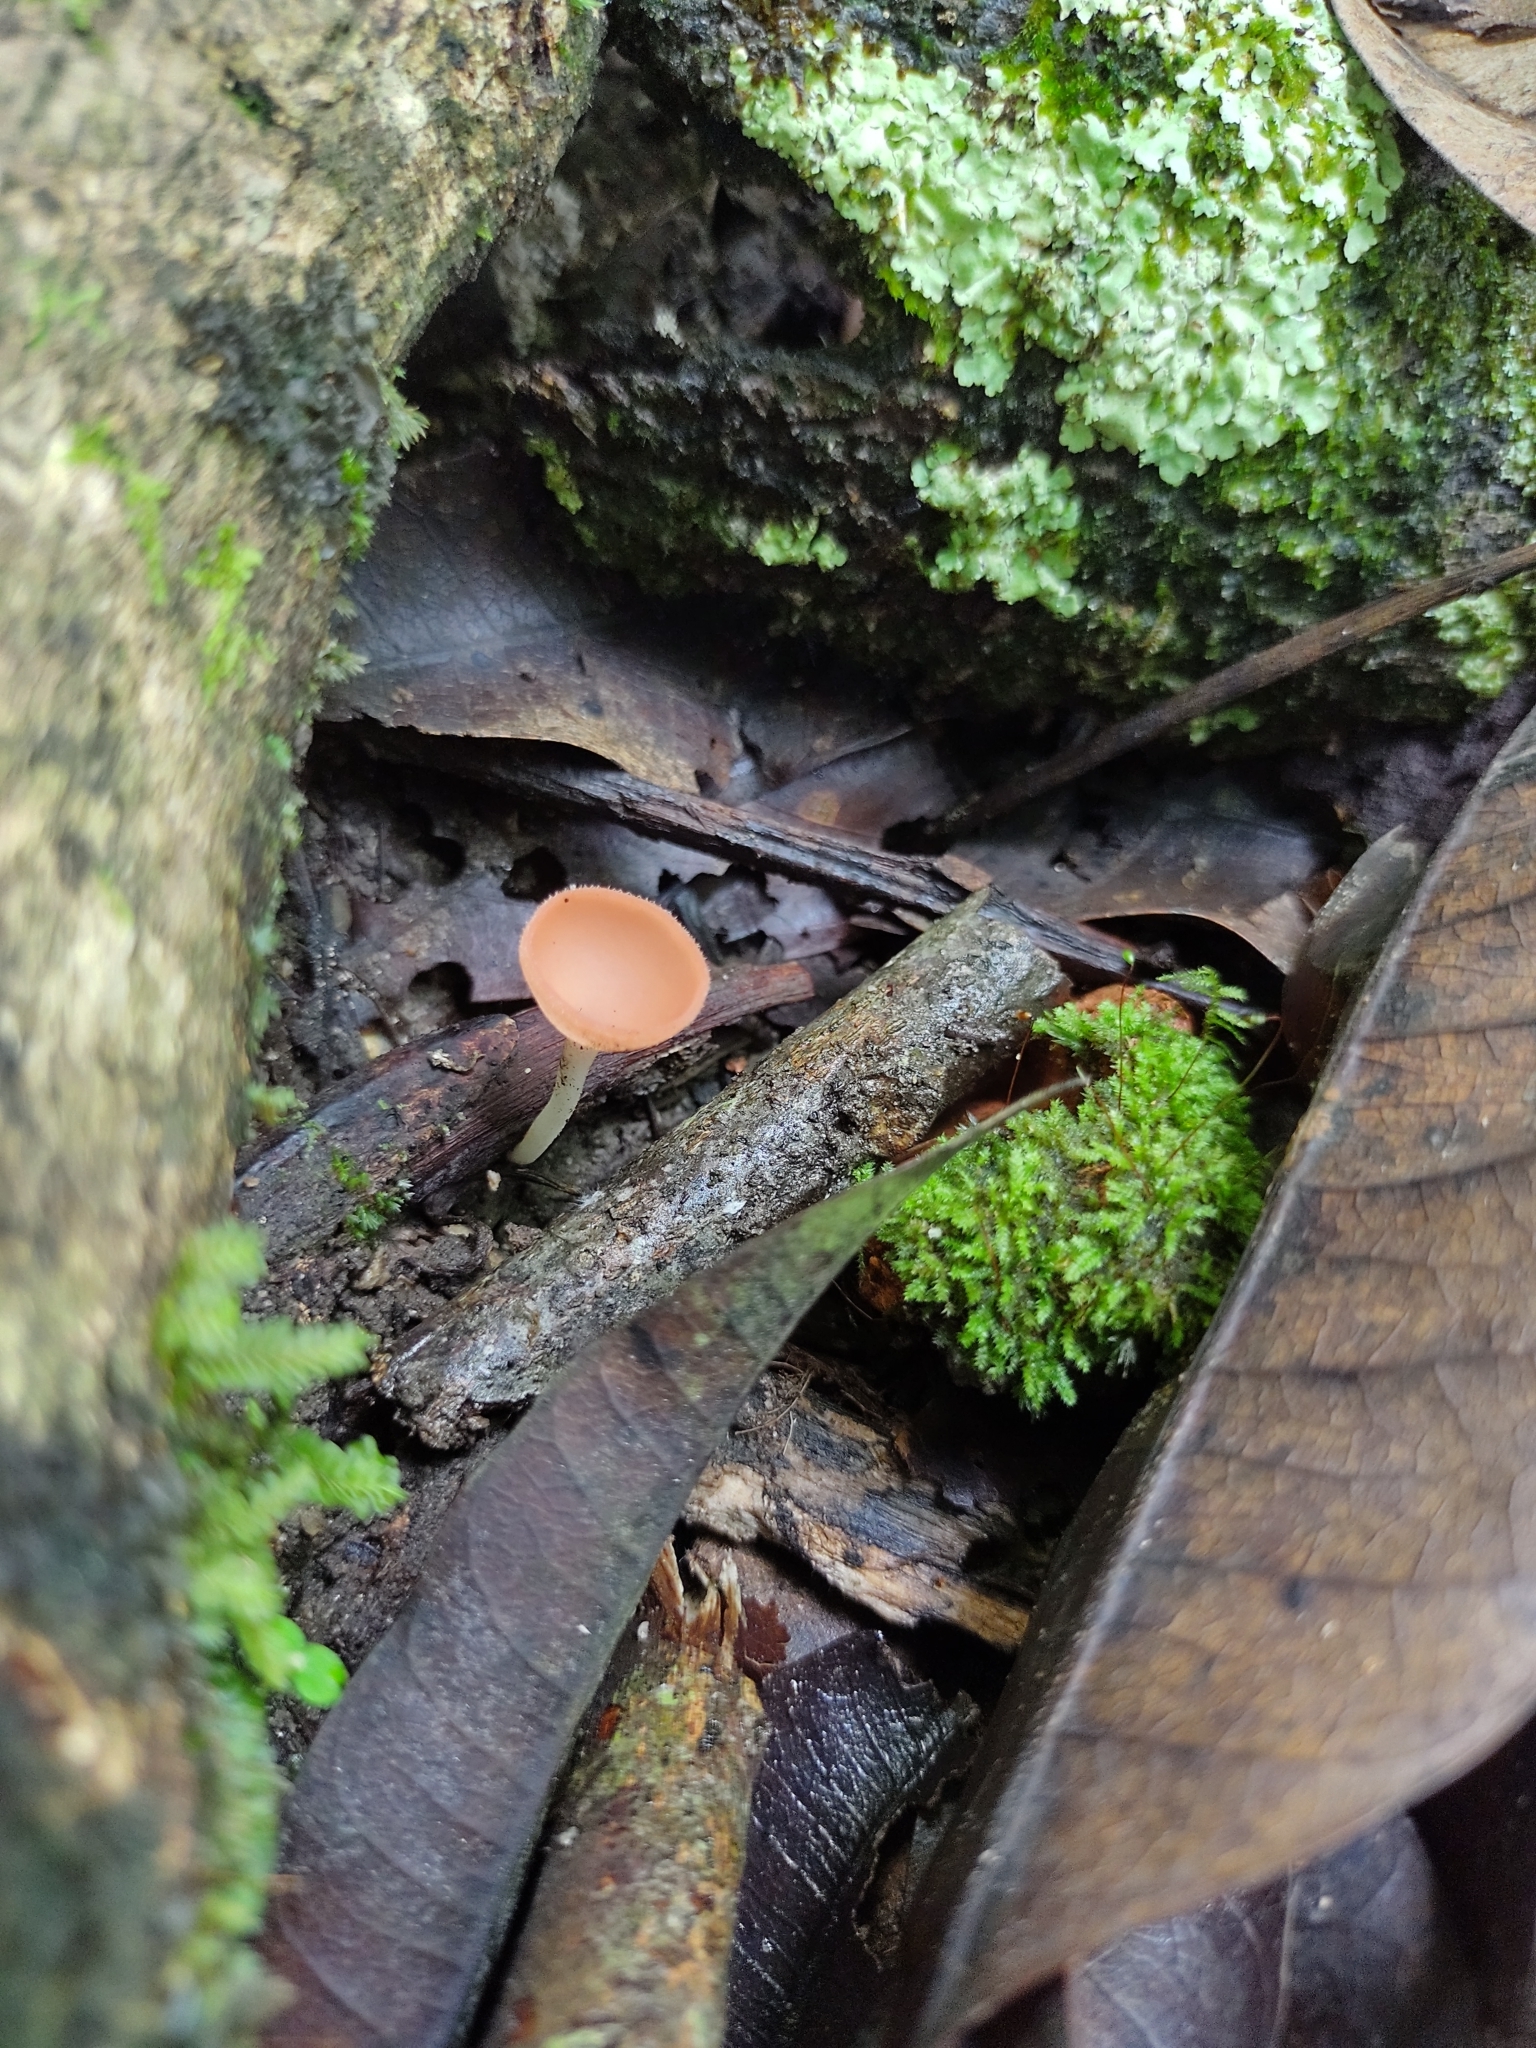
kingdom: Fungi
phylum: Ascomycota
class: Pezizomycetes
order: Pezizales
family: Sarcoscyphaceae
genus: Cookeina
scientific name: Cookeina speciosa
